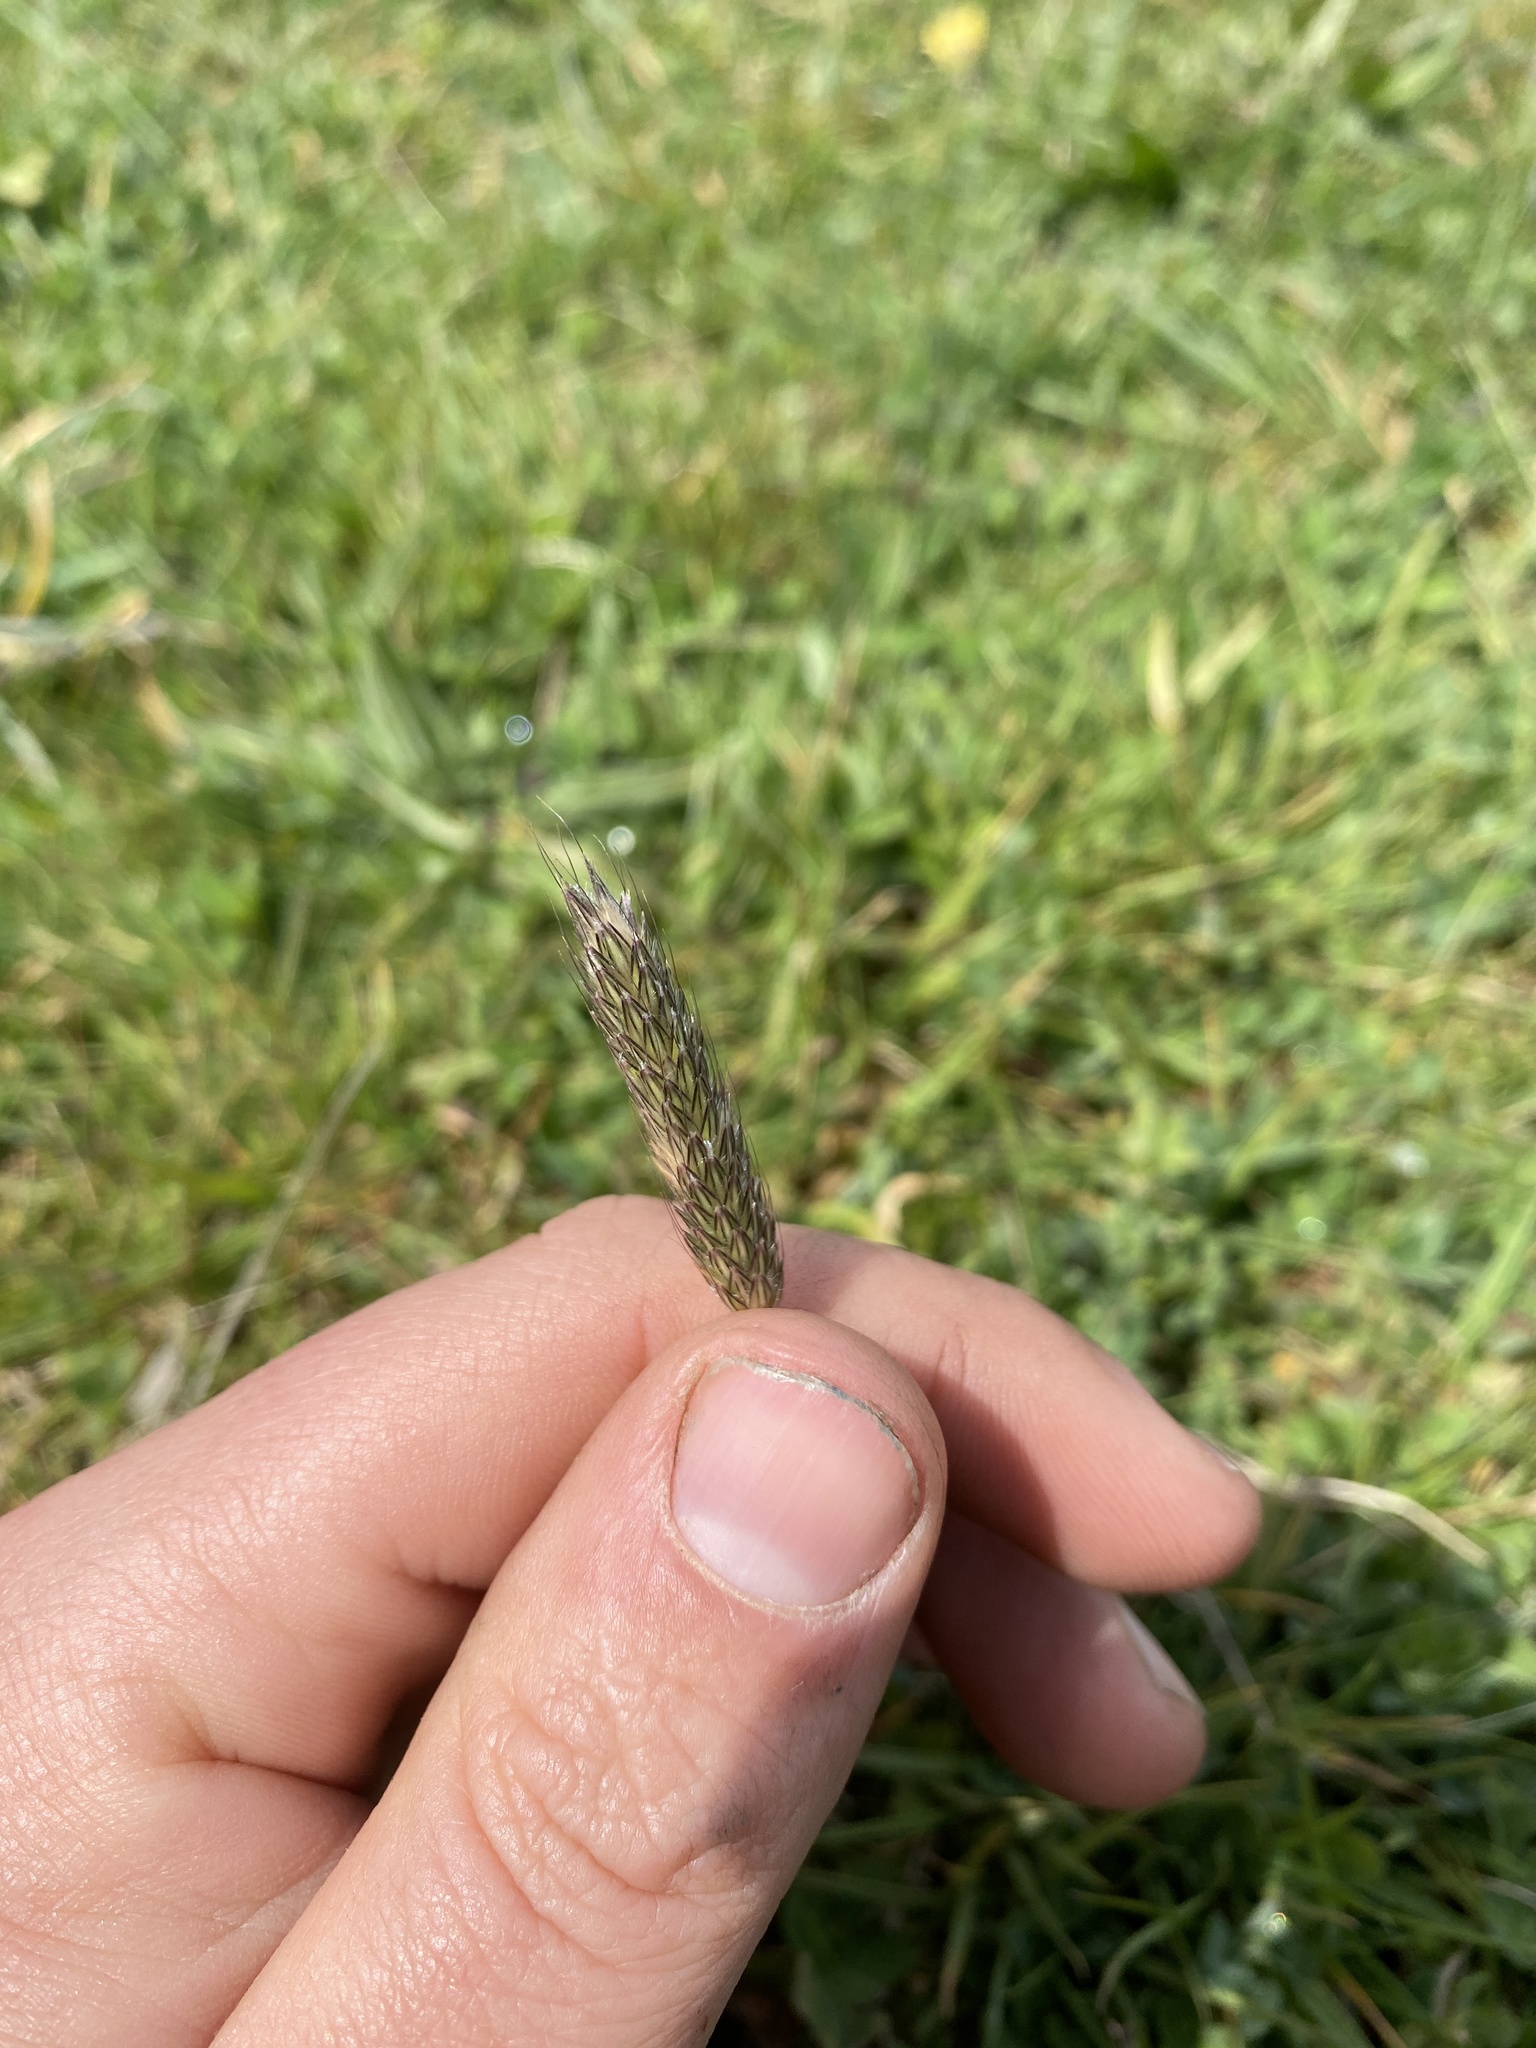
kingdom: Plantae
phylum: Tracheophyta
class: Liliopsida
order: Poales
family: Poaceae
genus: Alopecurus
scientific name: Alopecurus pratensis
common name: Meadow foxtail
